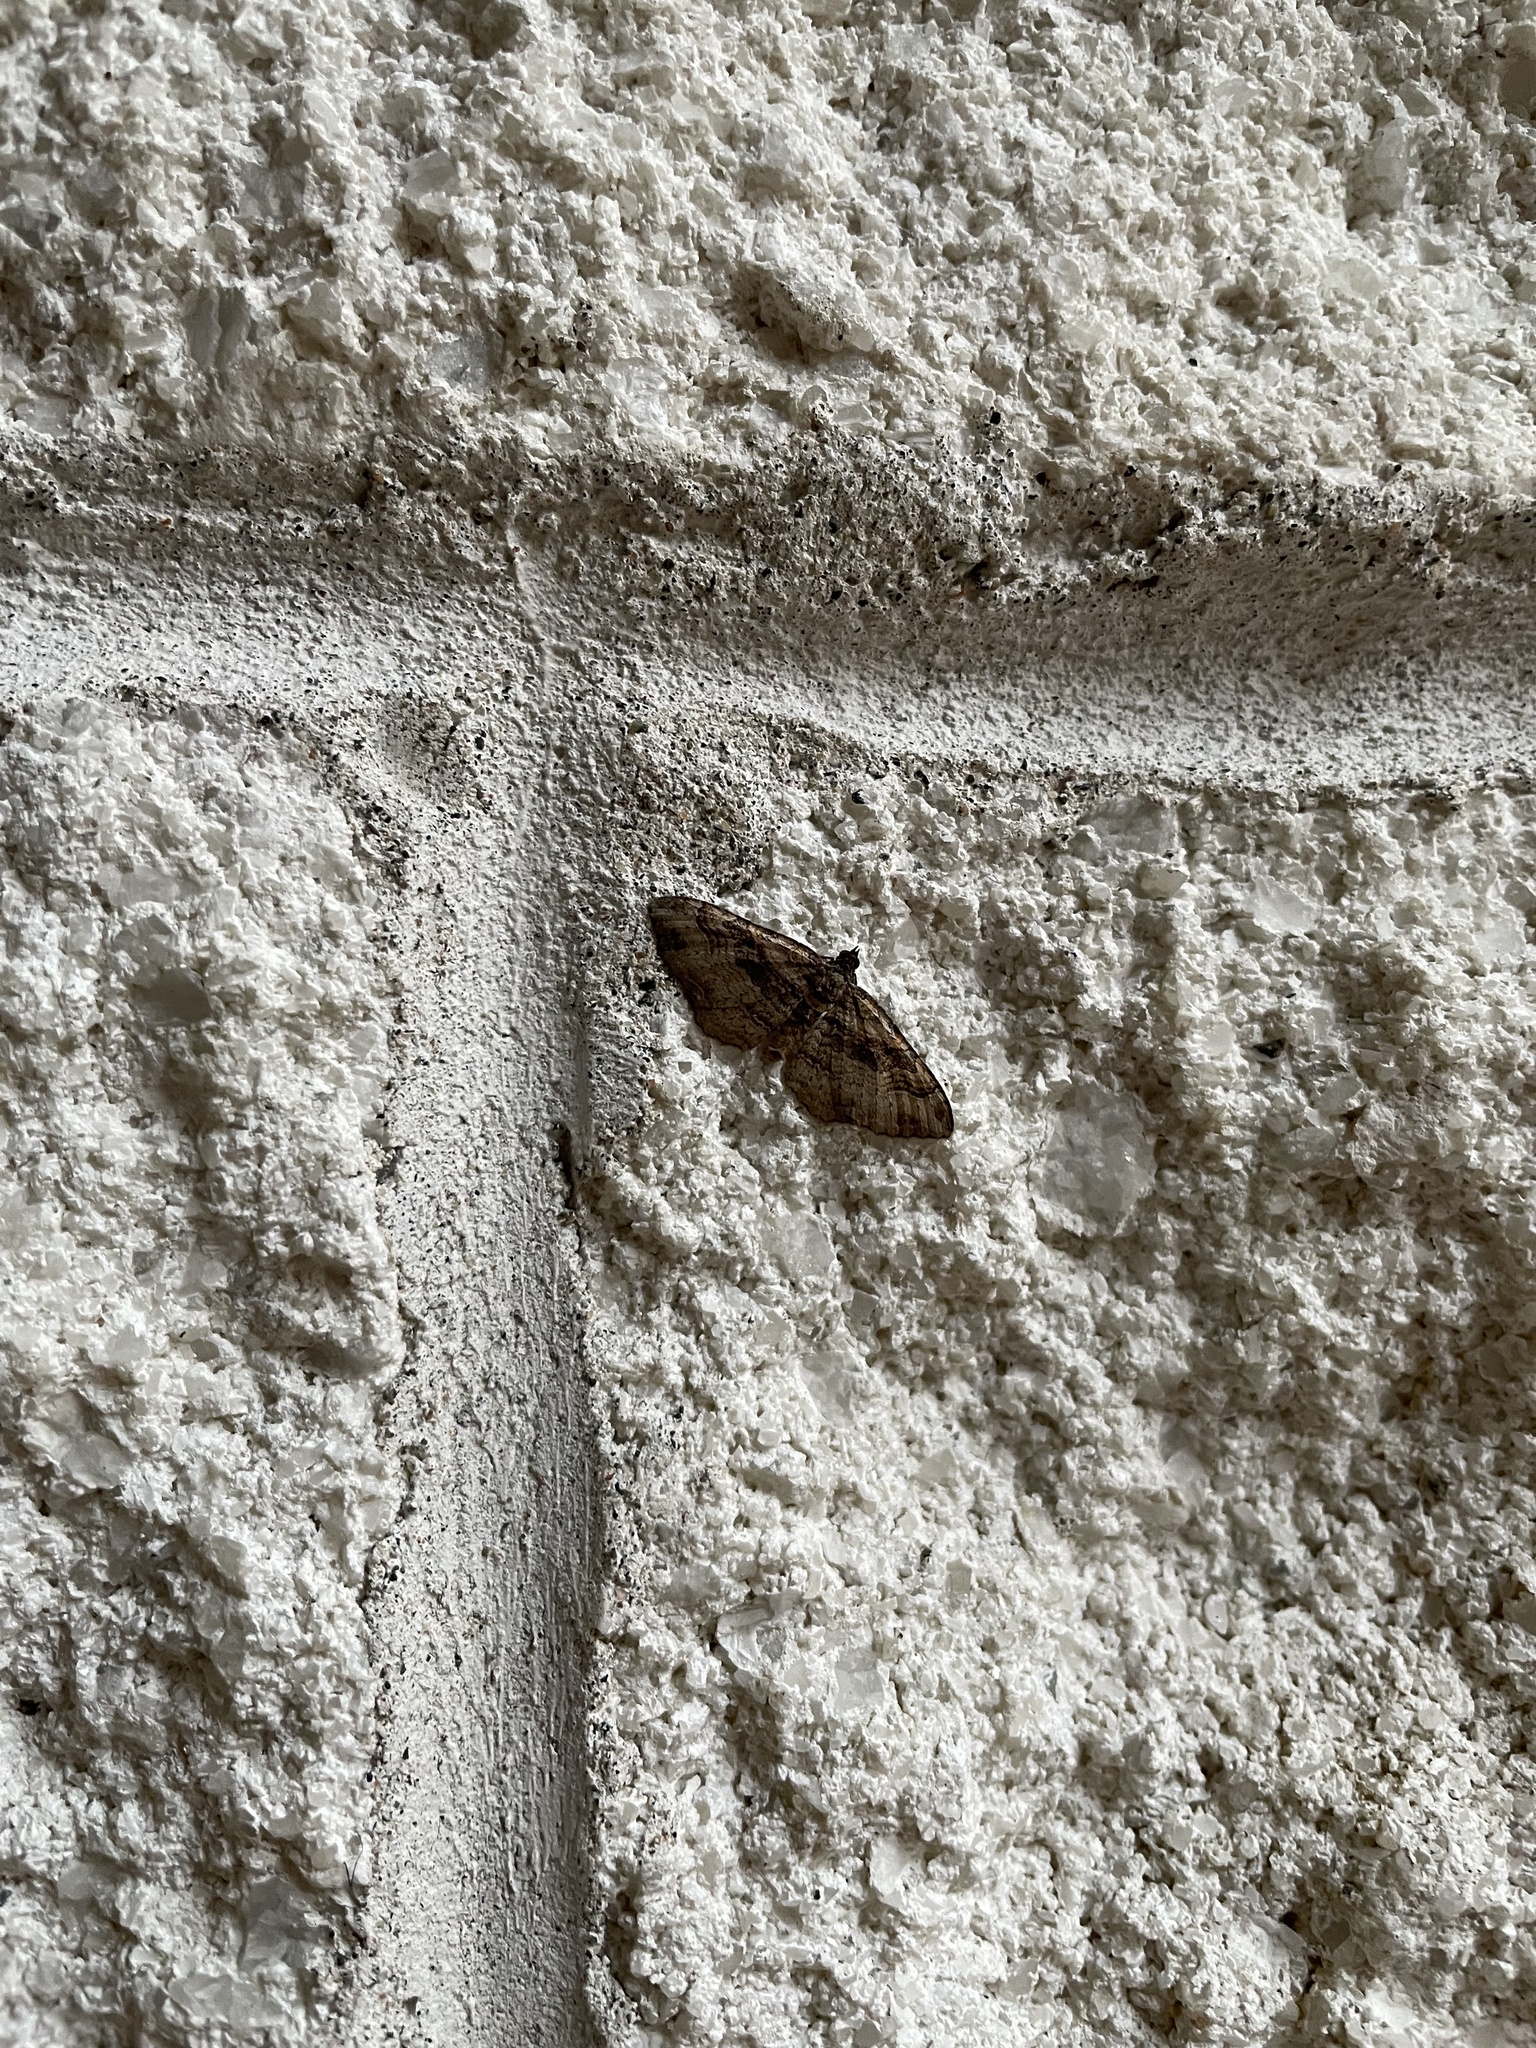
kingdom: Animalia
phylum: Arthropoda
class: Insecta
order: Lepidoptera
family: Geometridae
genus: Costaconvexa
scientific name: Costaconvexa centrostrigaria
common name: Bent-line carpet
